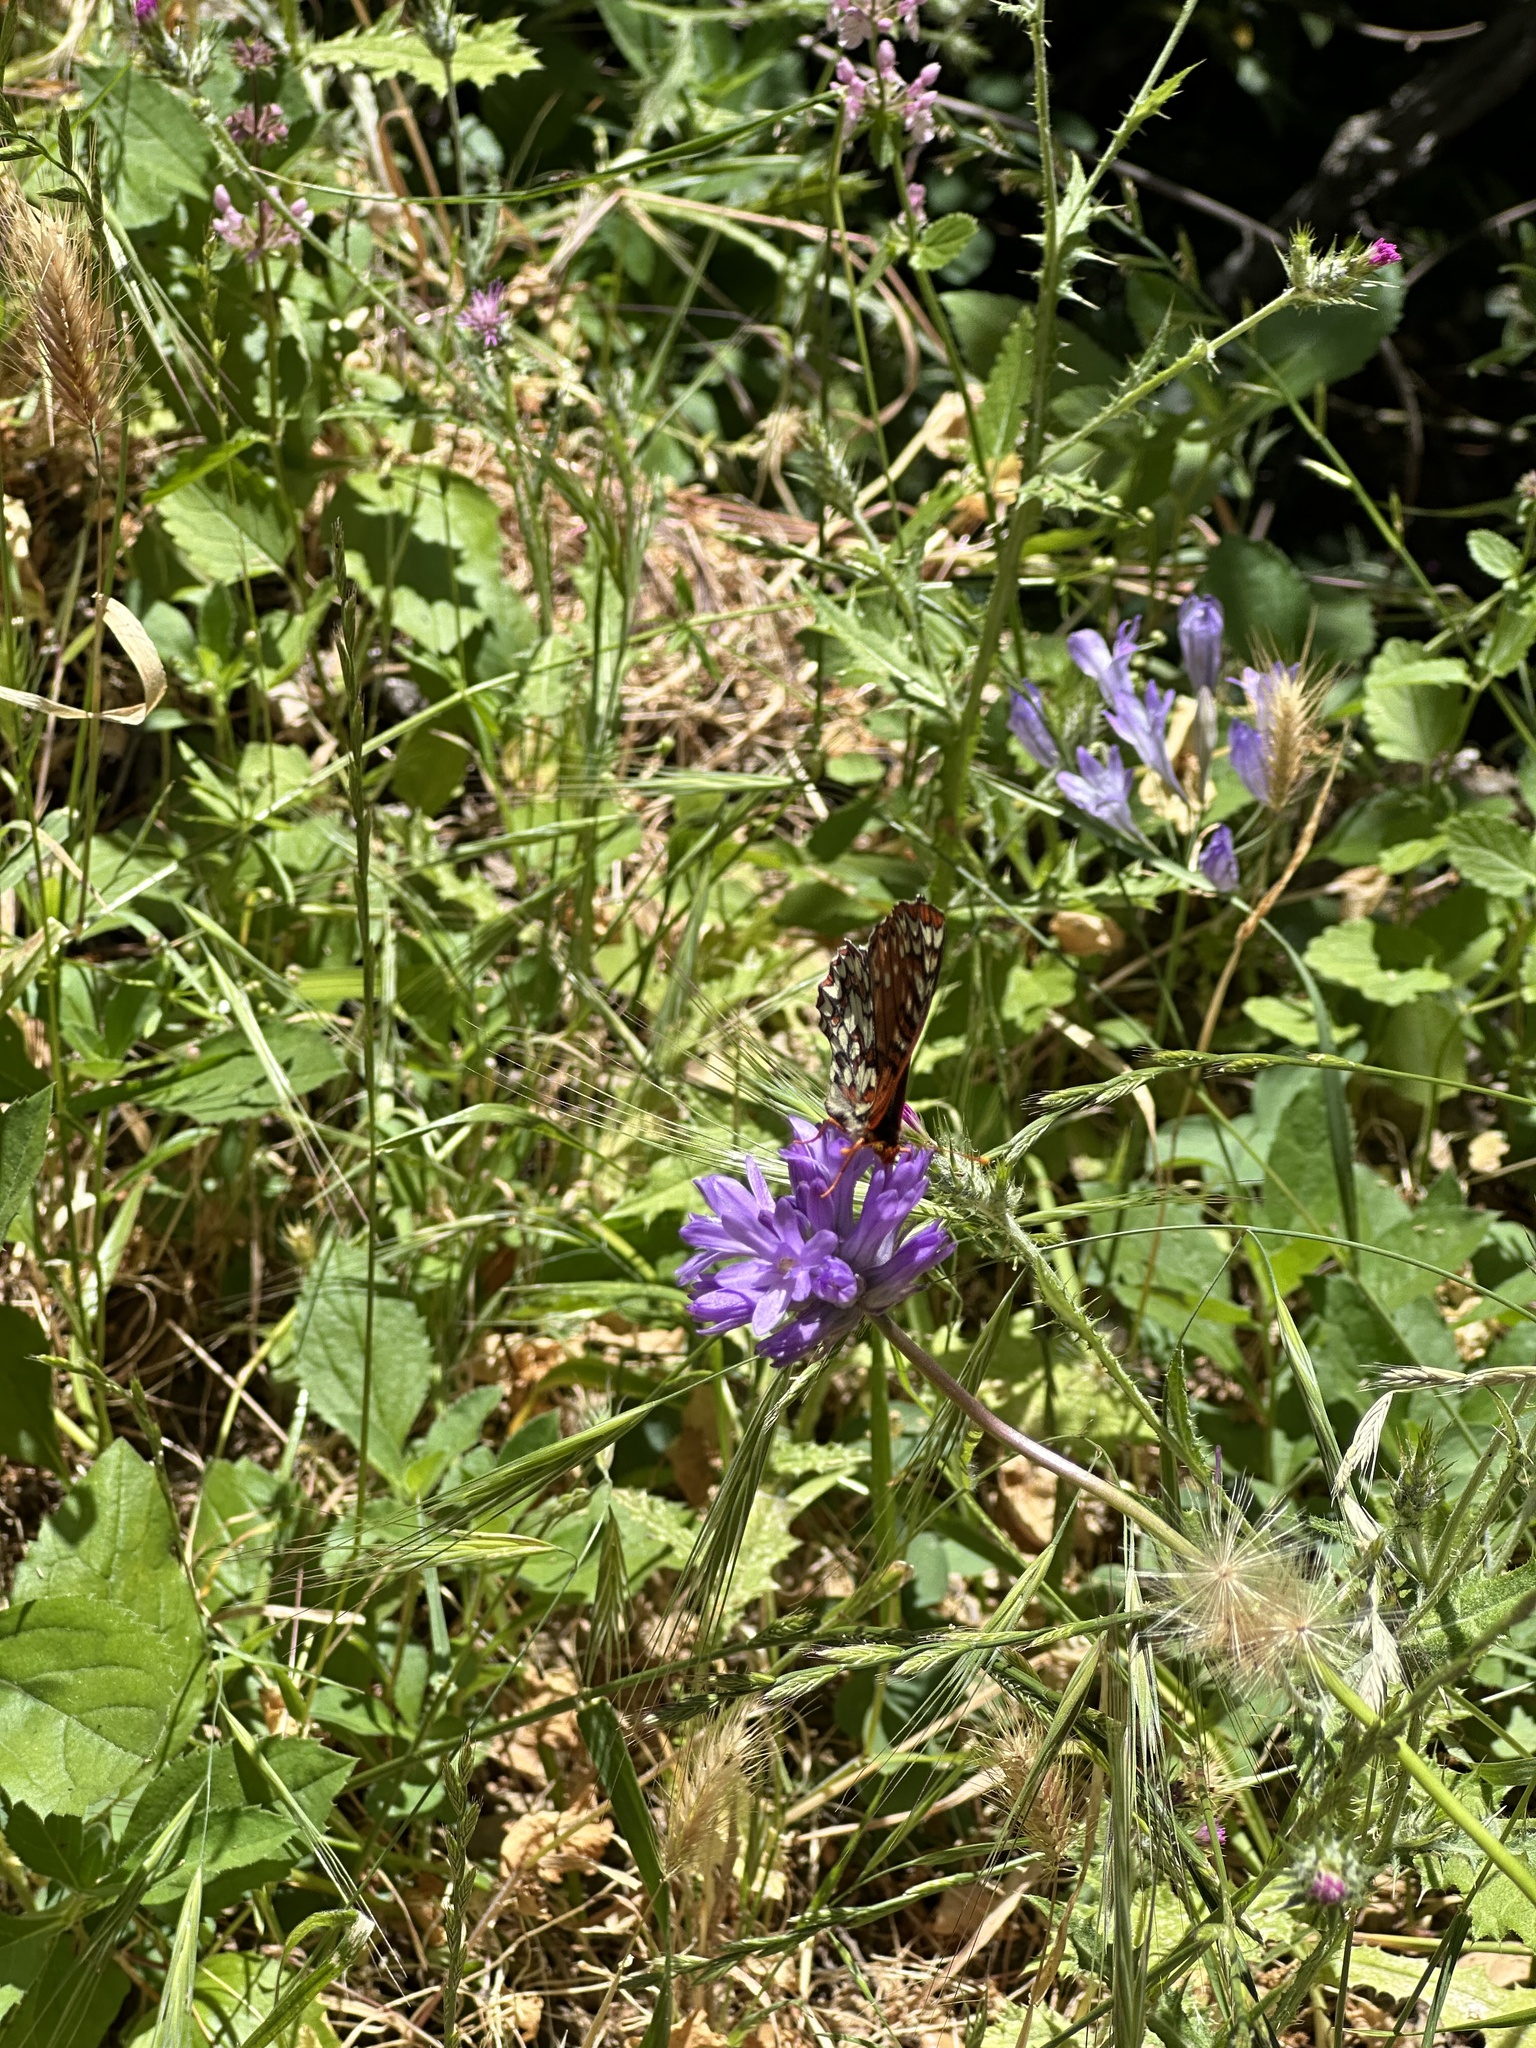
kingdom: Animalia
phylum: Arthropoda
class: Insecta
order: Lepidoptera
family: Nymphalidae
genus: Occidryas
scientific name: Occidryas chalcedona
